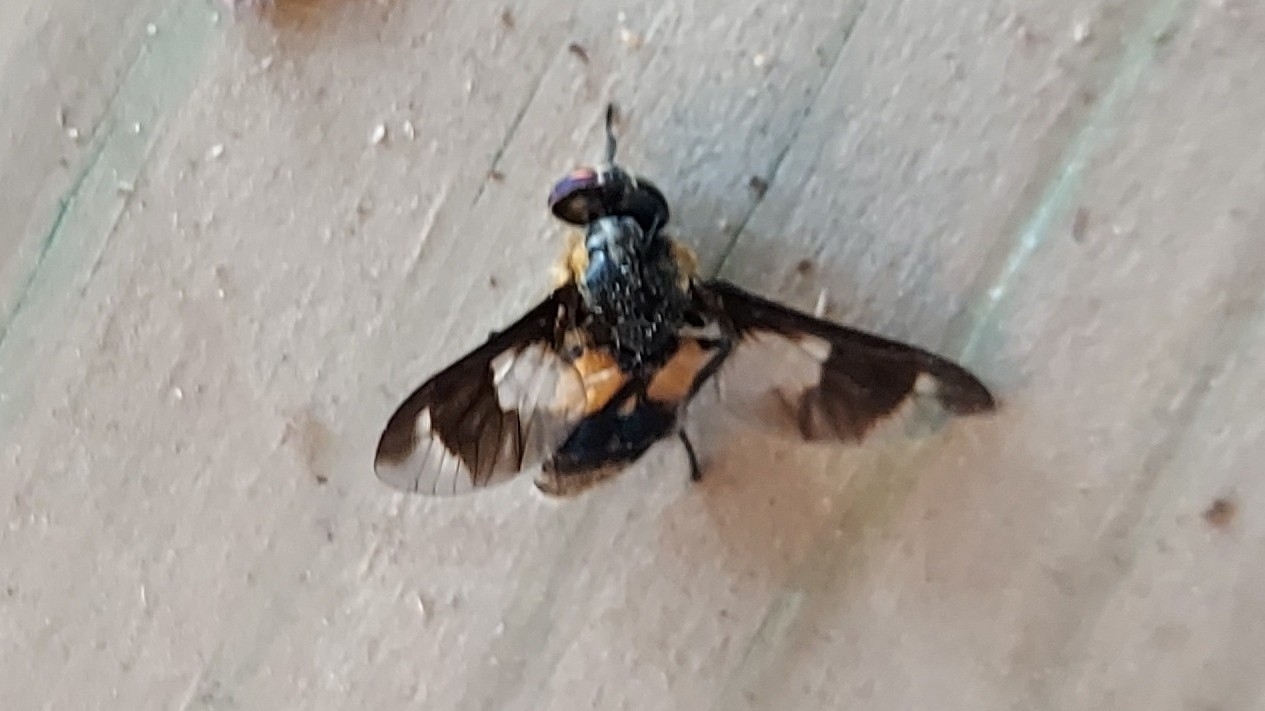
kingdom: Animalia
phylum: Arthropoda
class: Insecta
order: Diptera
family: Tabanidae
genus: Chrysops
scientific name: Chrysops caecutiens
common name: Splayed deerfly
